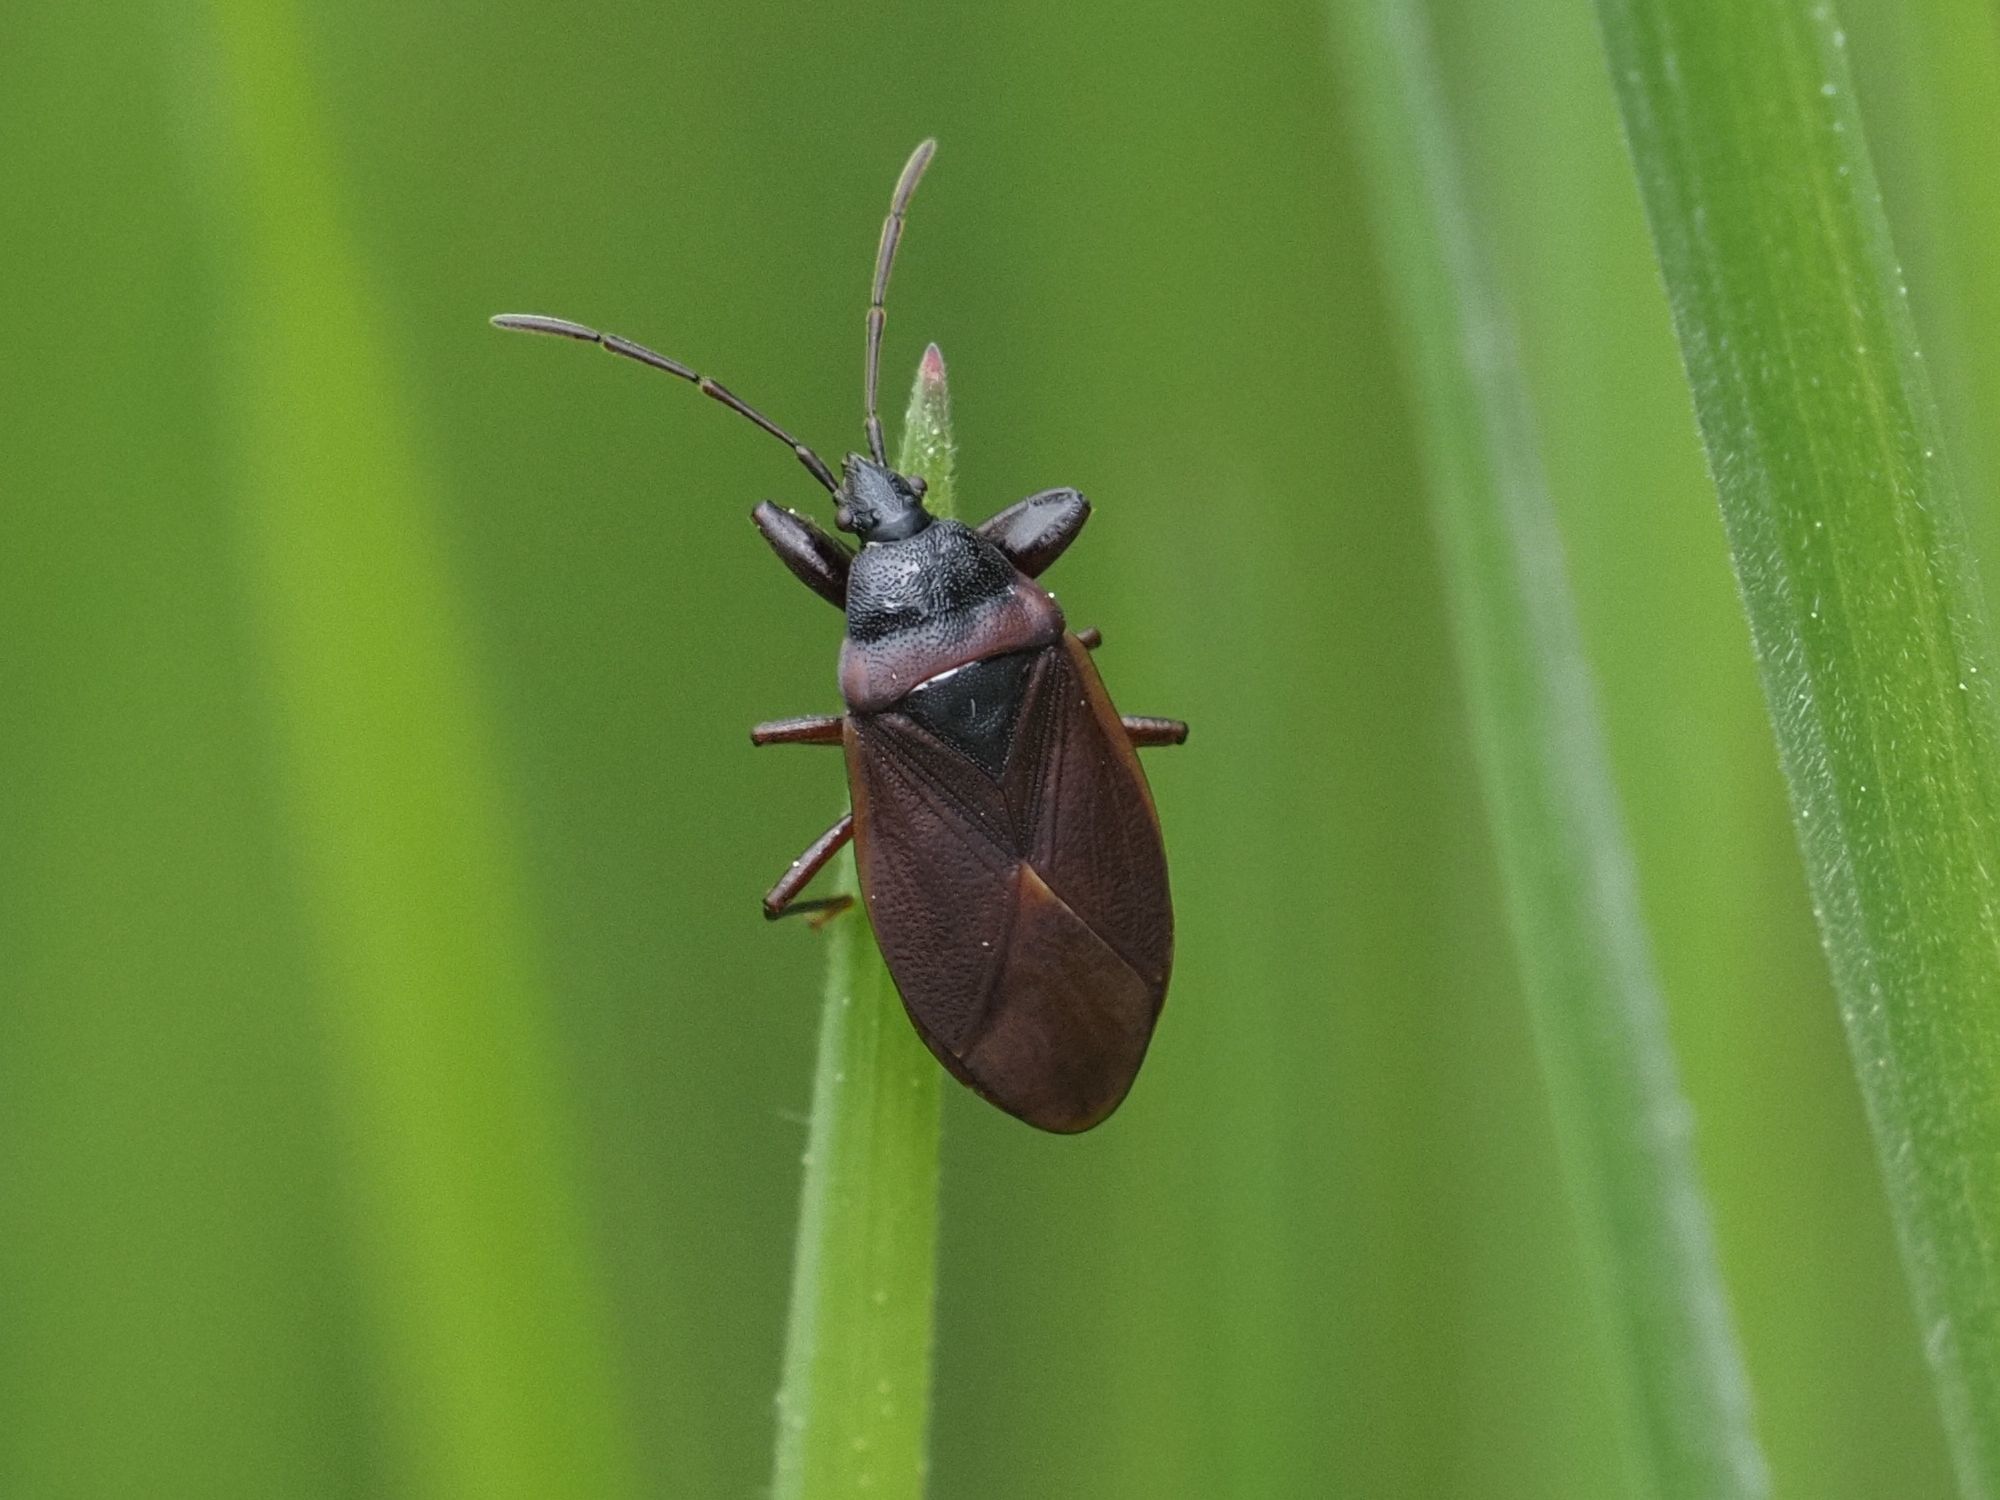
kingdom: Animalia
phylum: Arthropoda
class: Insecta
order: Hemiptera
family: Rhyparochromidae
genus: Gastrodes
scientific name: Gastrodes grossipes
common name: Pine cone bug
